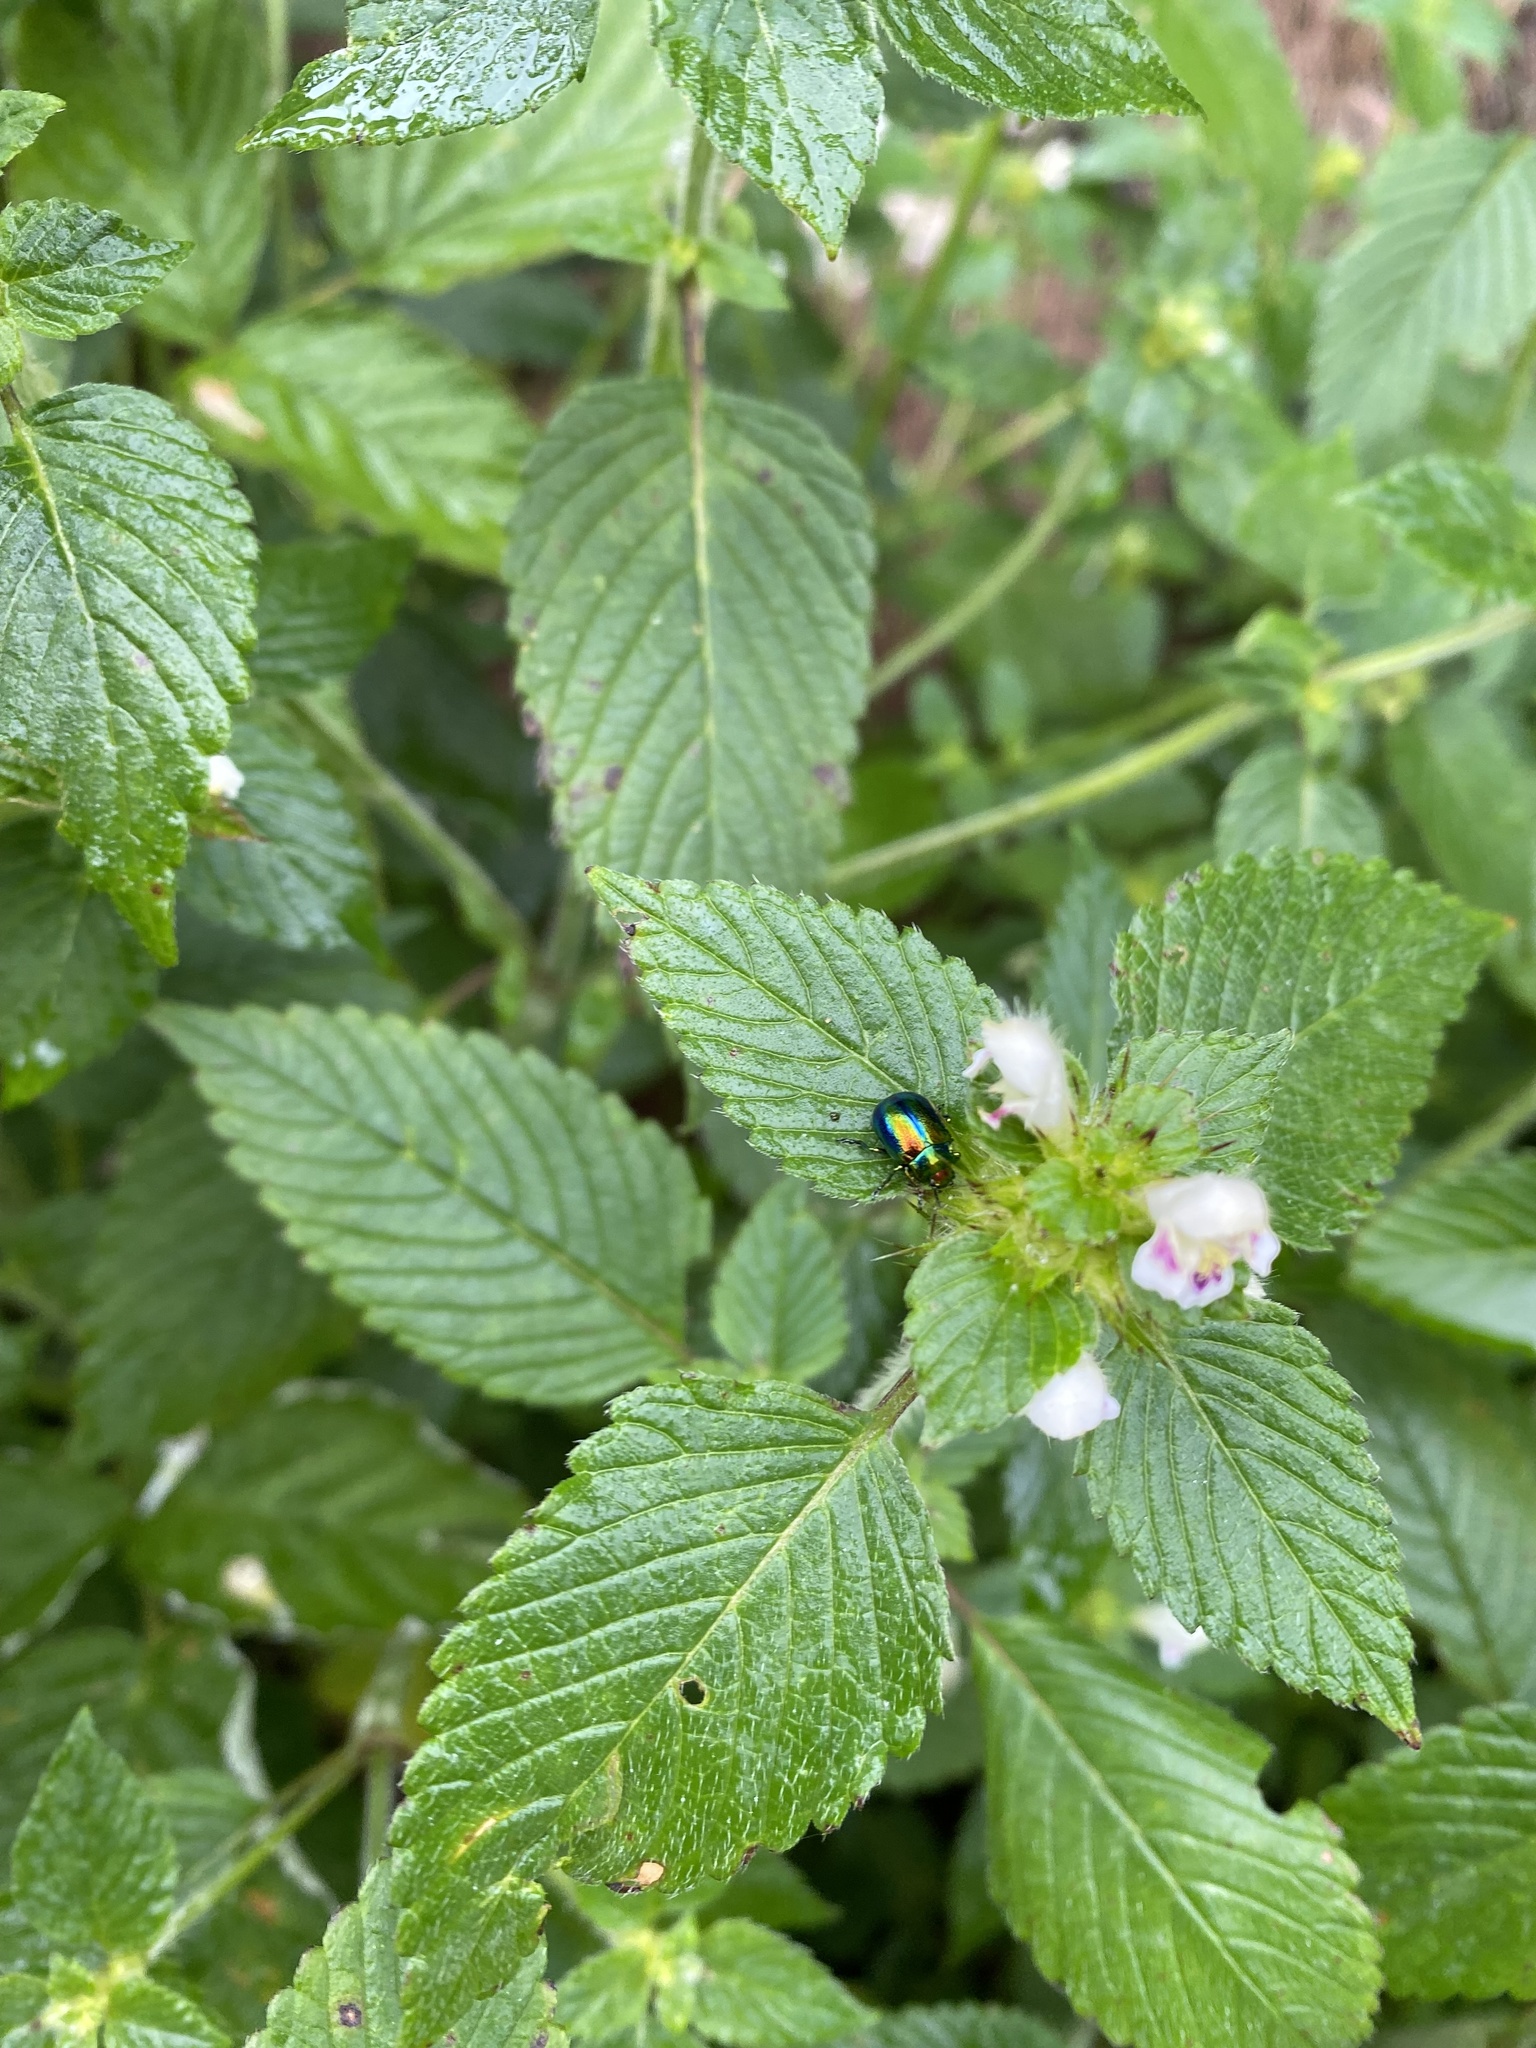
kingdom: Animalia
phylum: Arthropoda
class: Insecta
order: Coleoptera
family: Chrysomelidae
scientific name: Chrysomelidae
